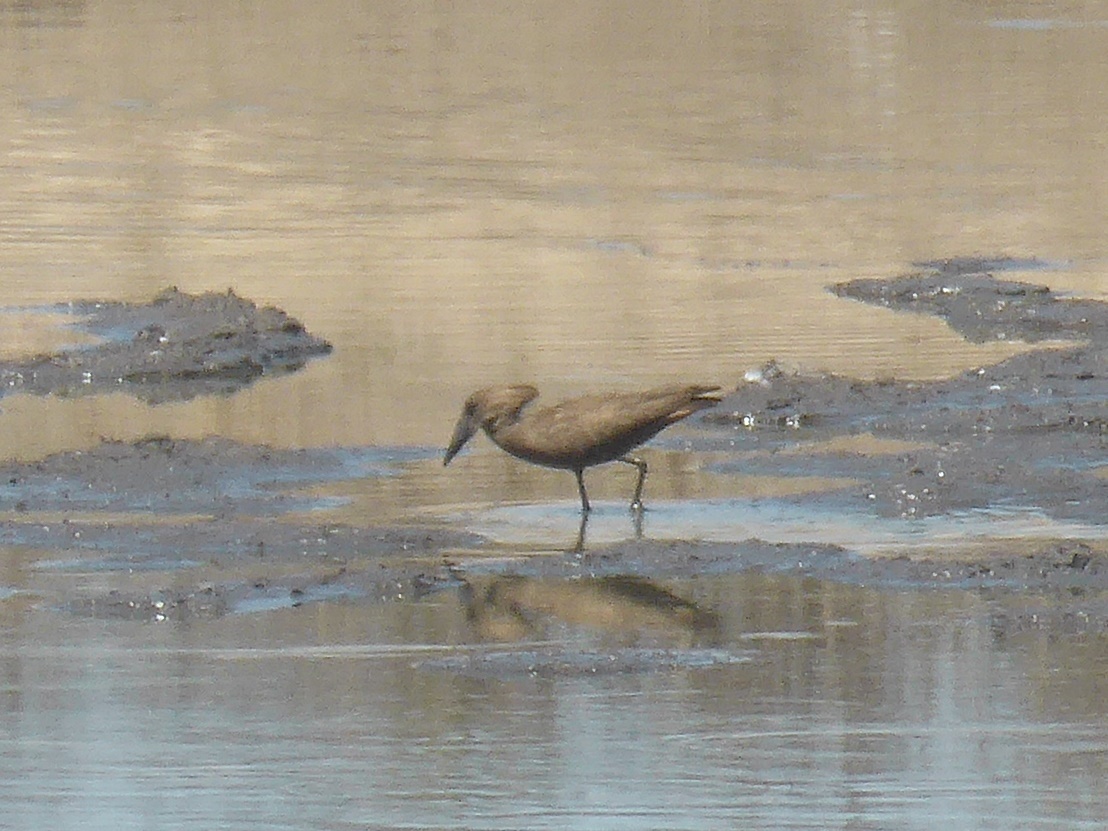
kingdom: Animalia
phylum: Chordata
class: Aves
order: Pelecaniformes
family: Scopidae
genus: Scopus
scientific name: Scopus umbretta
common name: Hamerkop
